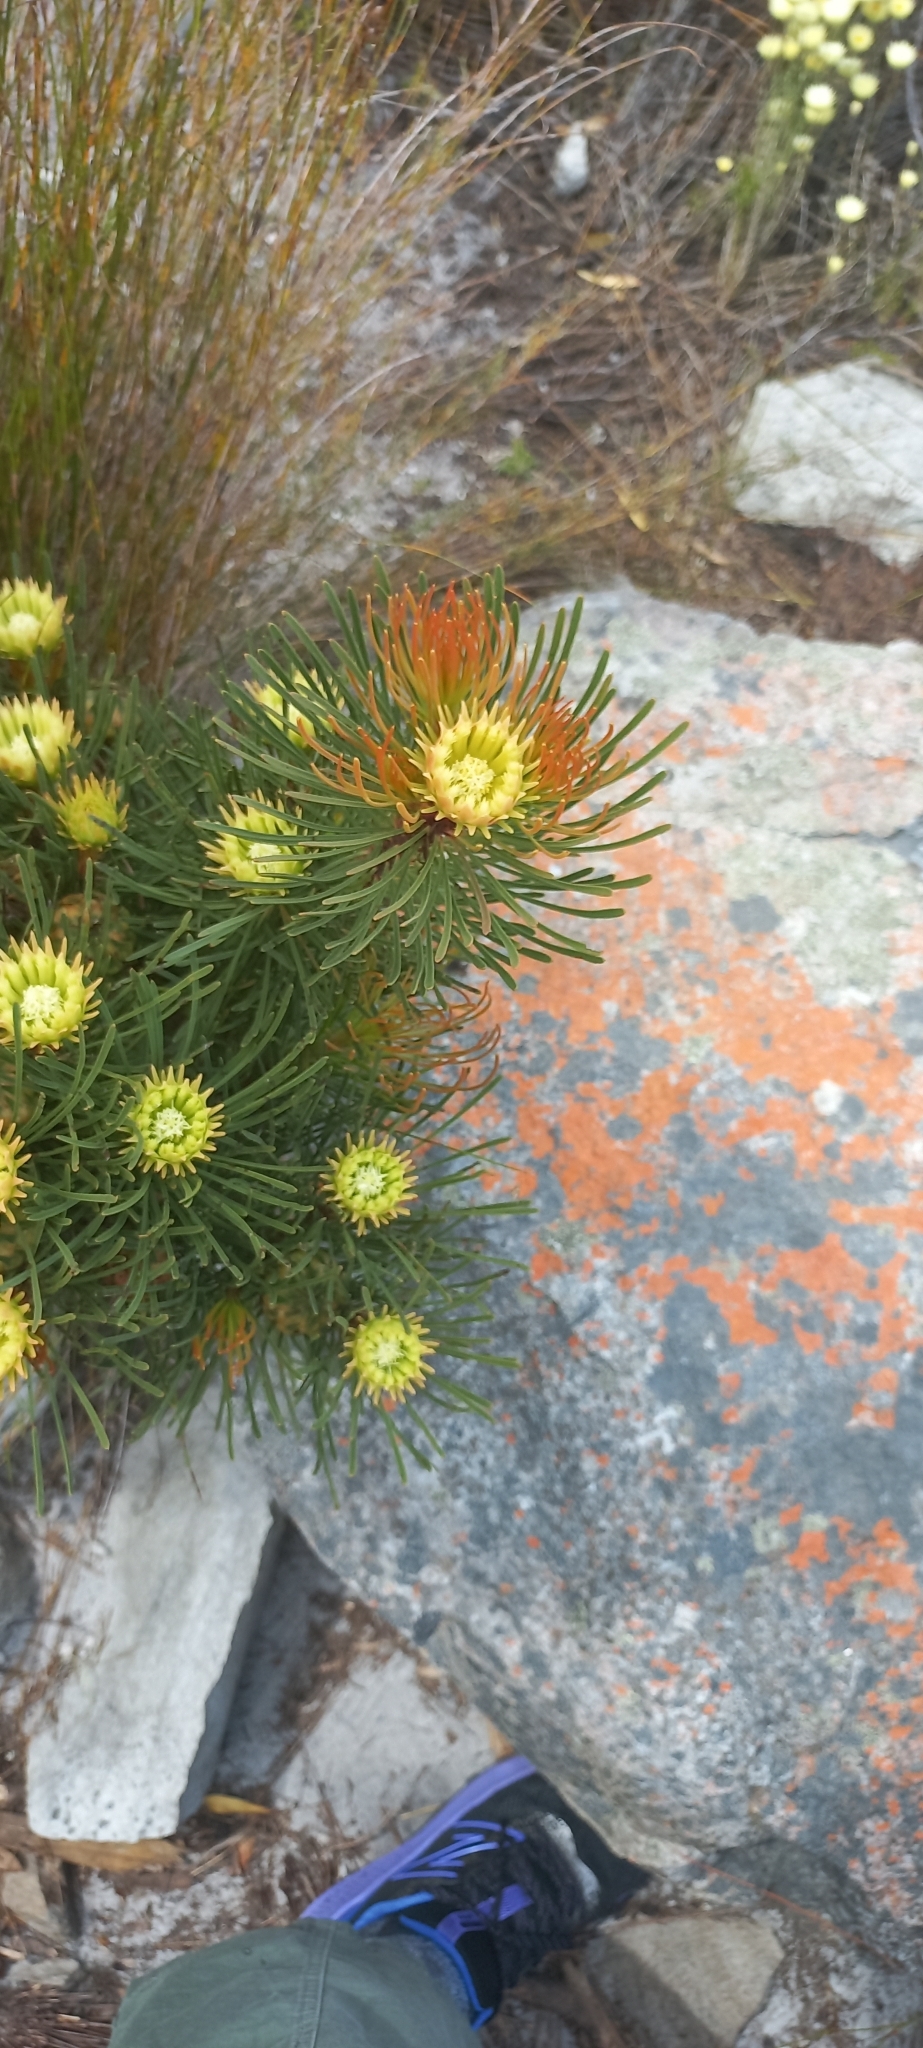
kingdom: Plantae
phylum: Tracheophyta
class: Magnoliopsida
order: Proteales
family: Proteaceae
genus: Aulax
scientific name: Aulax cancellata
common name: Channel-leaf featherbush
